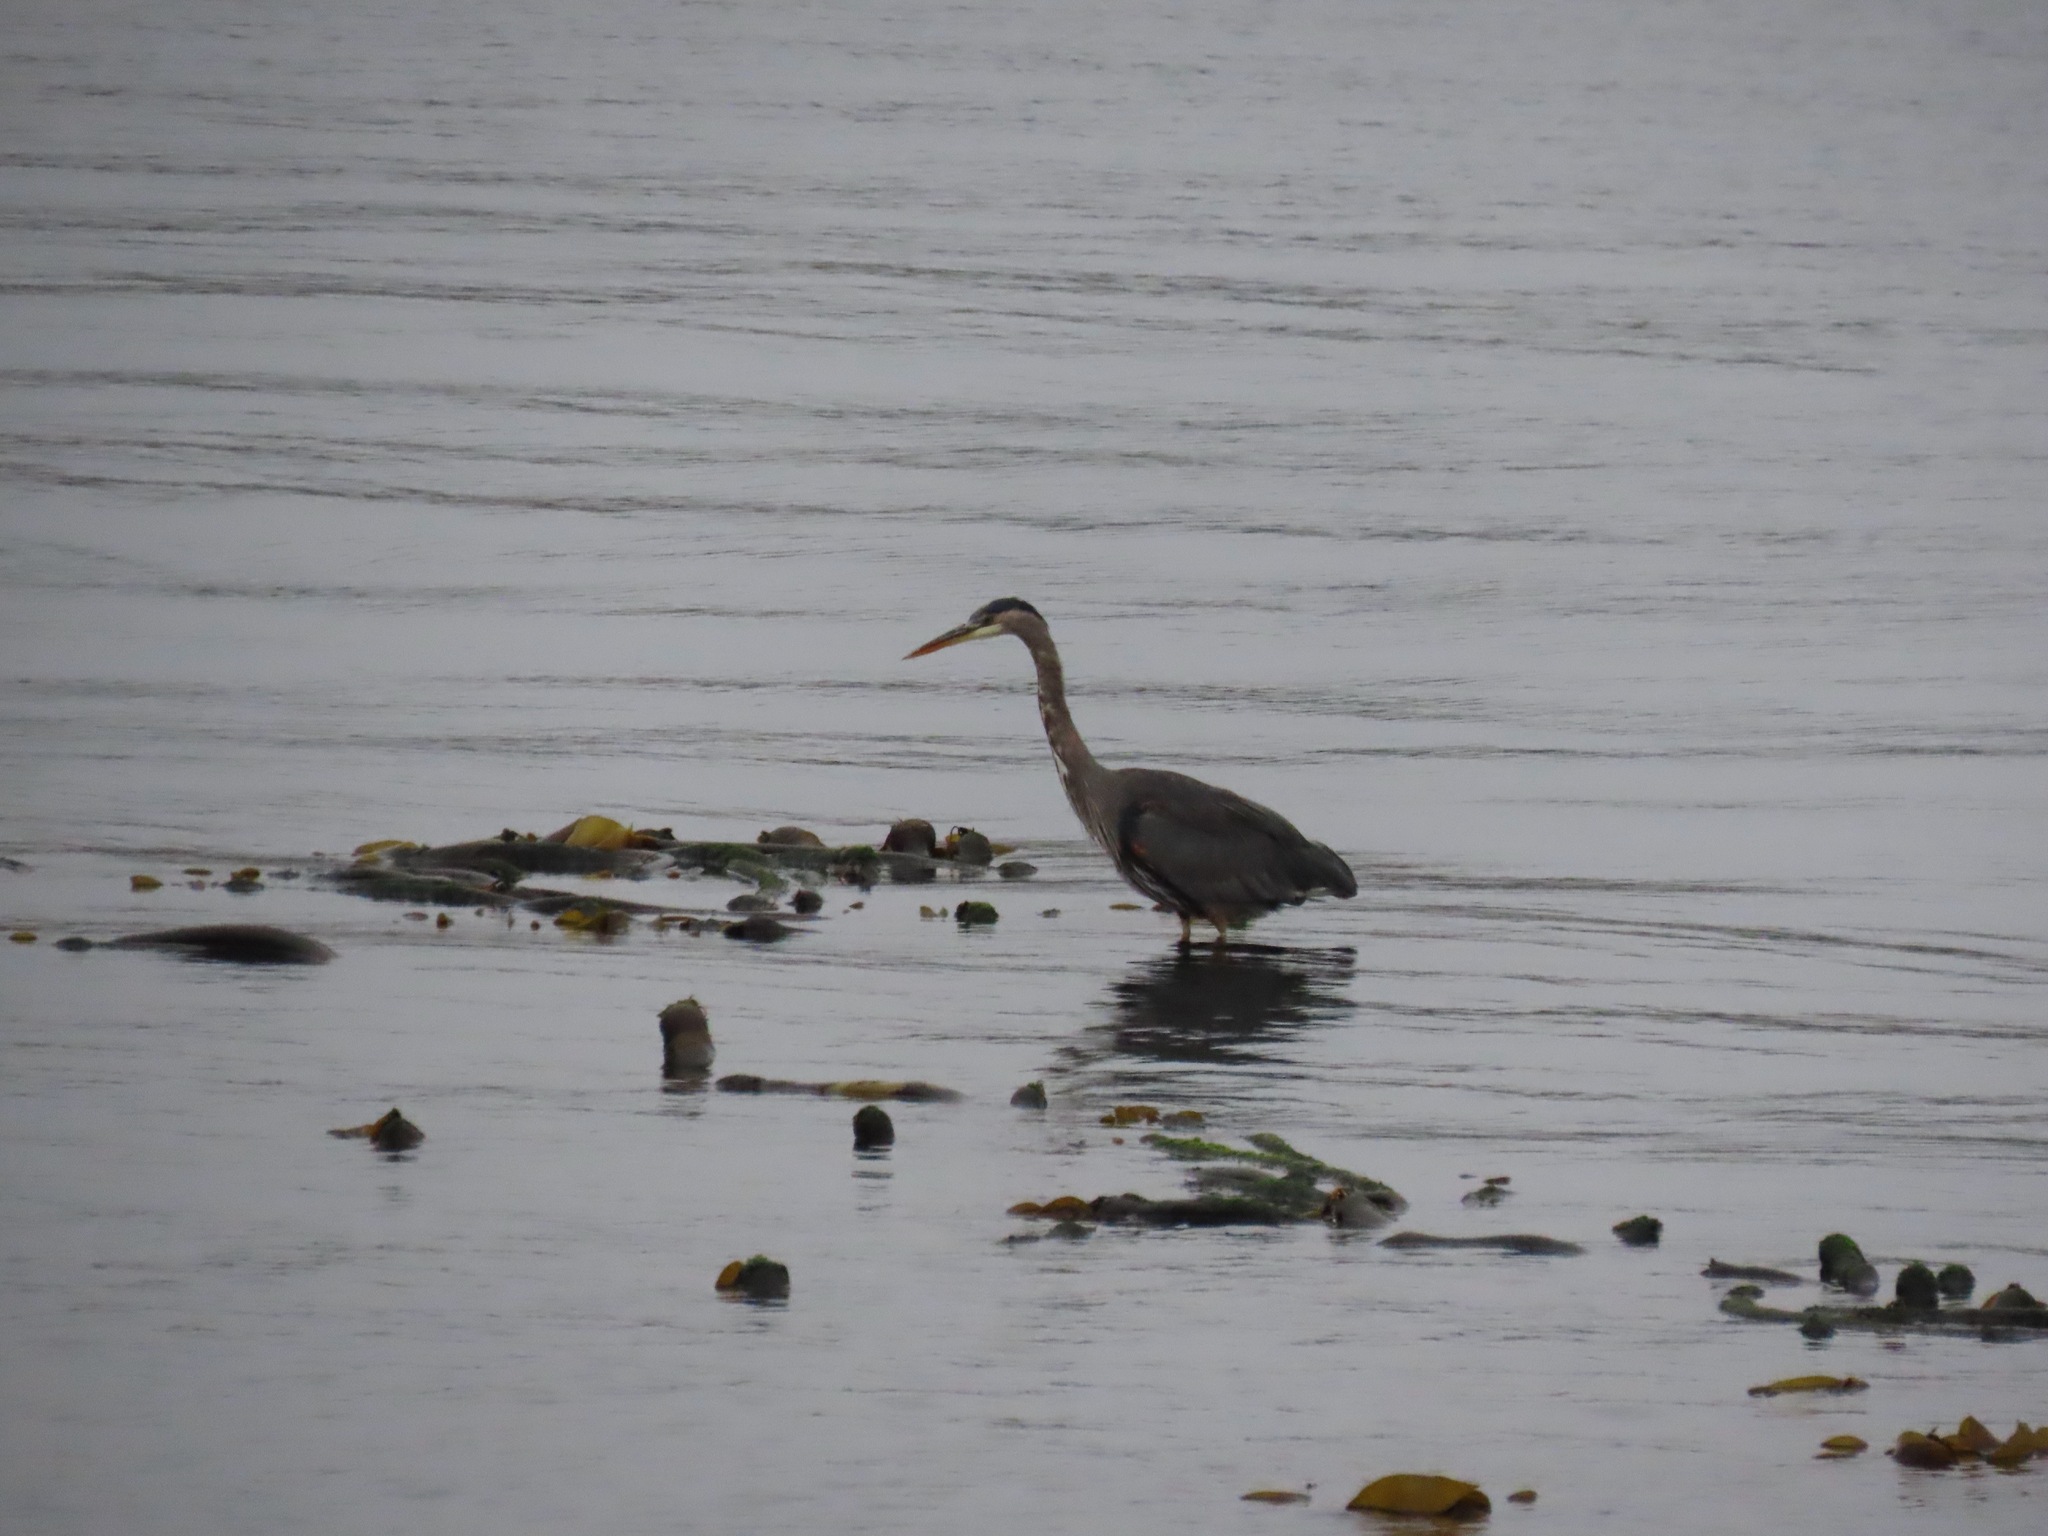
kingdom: Animalia
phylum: Chordata
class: Aves
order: Pelecaniformes
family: Ardeidae
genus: Ardea
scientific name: Ardea herodias
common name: Great blue heron
